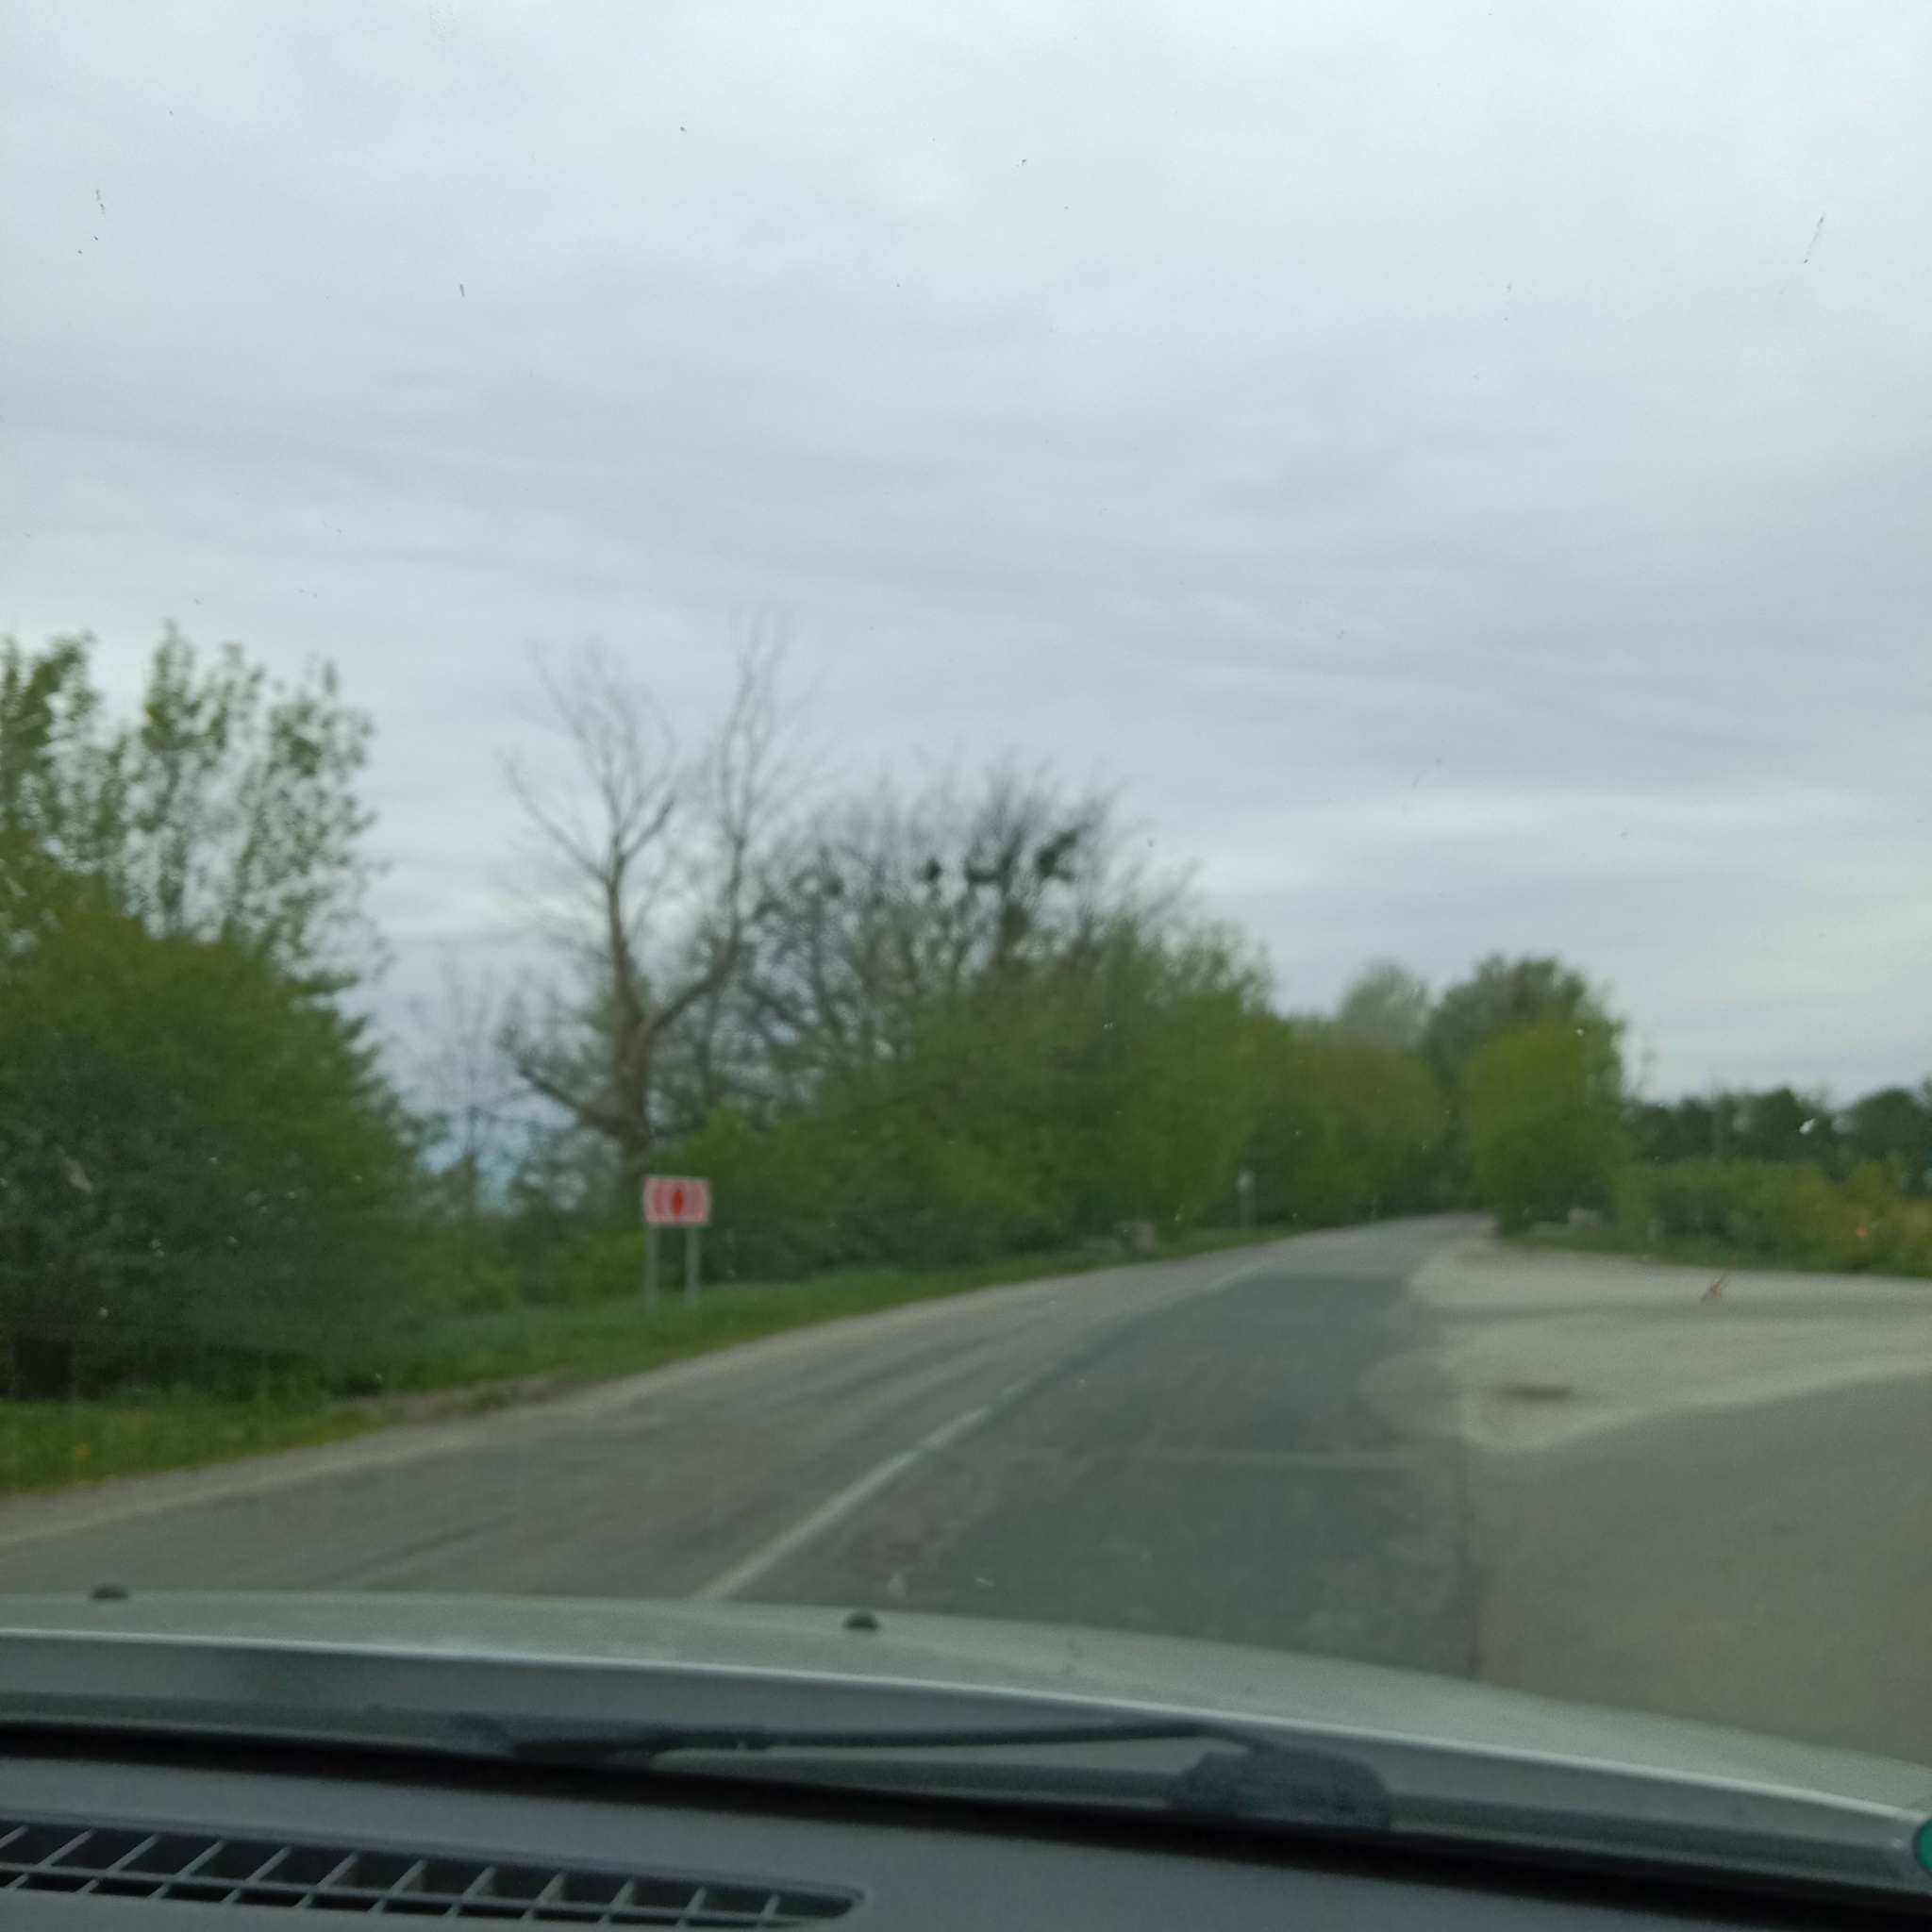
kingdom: Plantae
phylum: Tracheophyta
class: Magnoliopsida
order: Santalales
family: Viscaceae
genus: Viscum
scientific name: Viscum album
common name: Mistletoe
